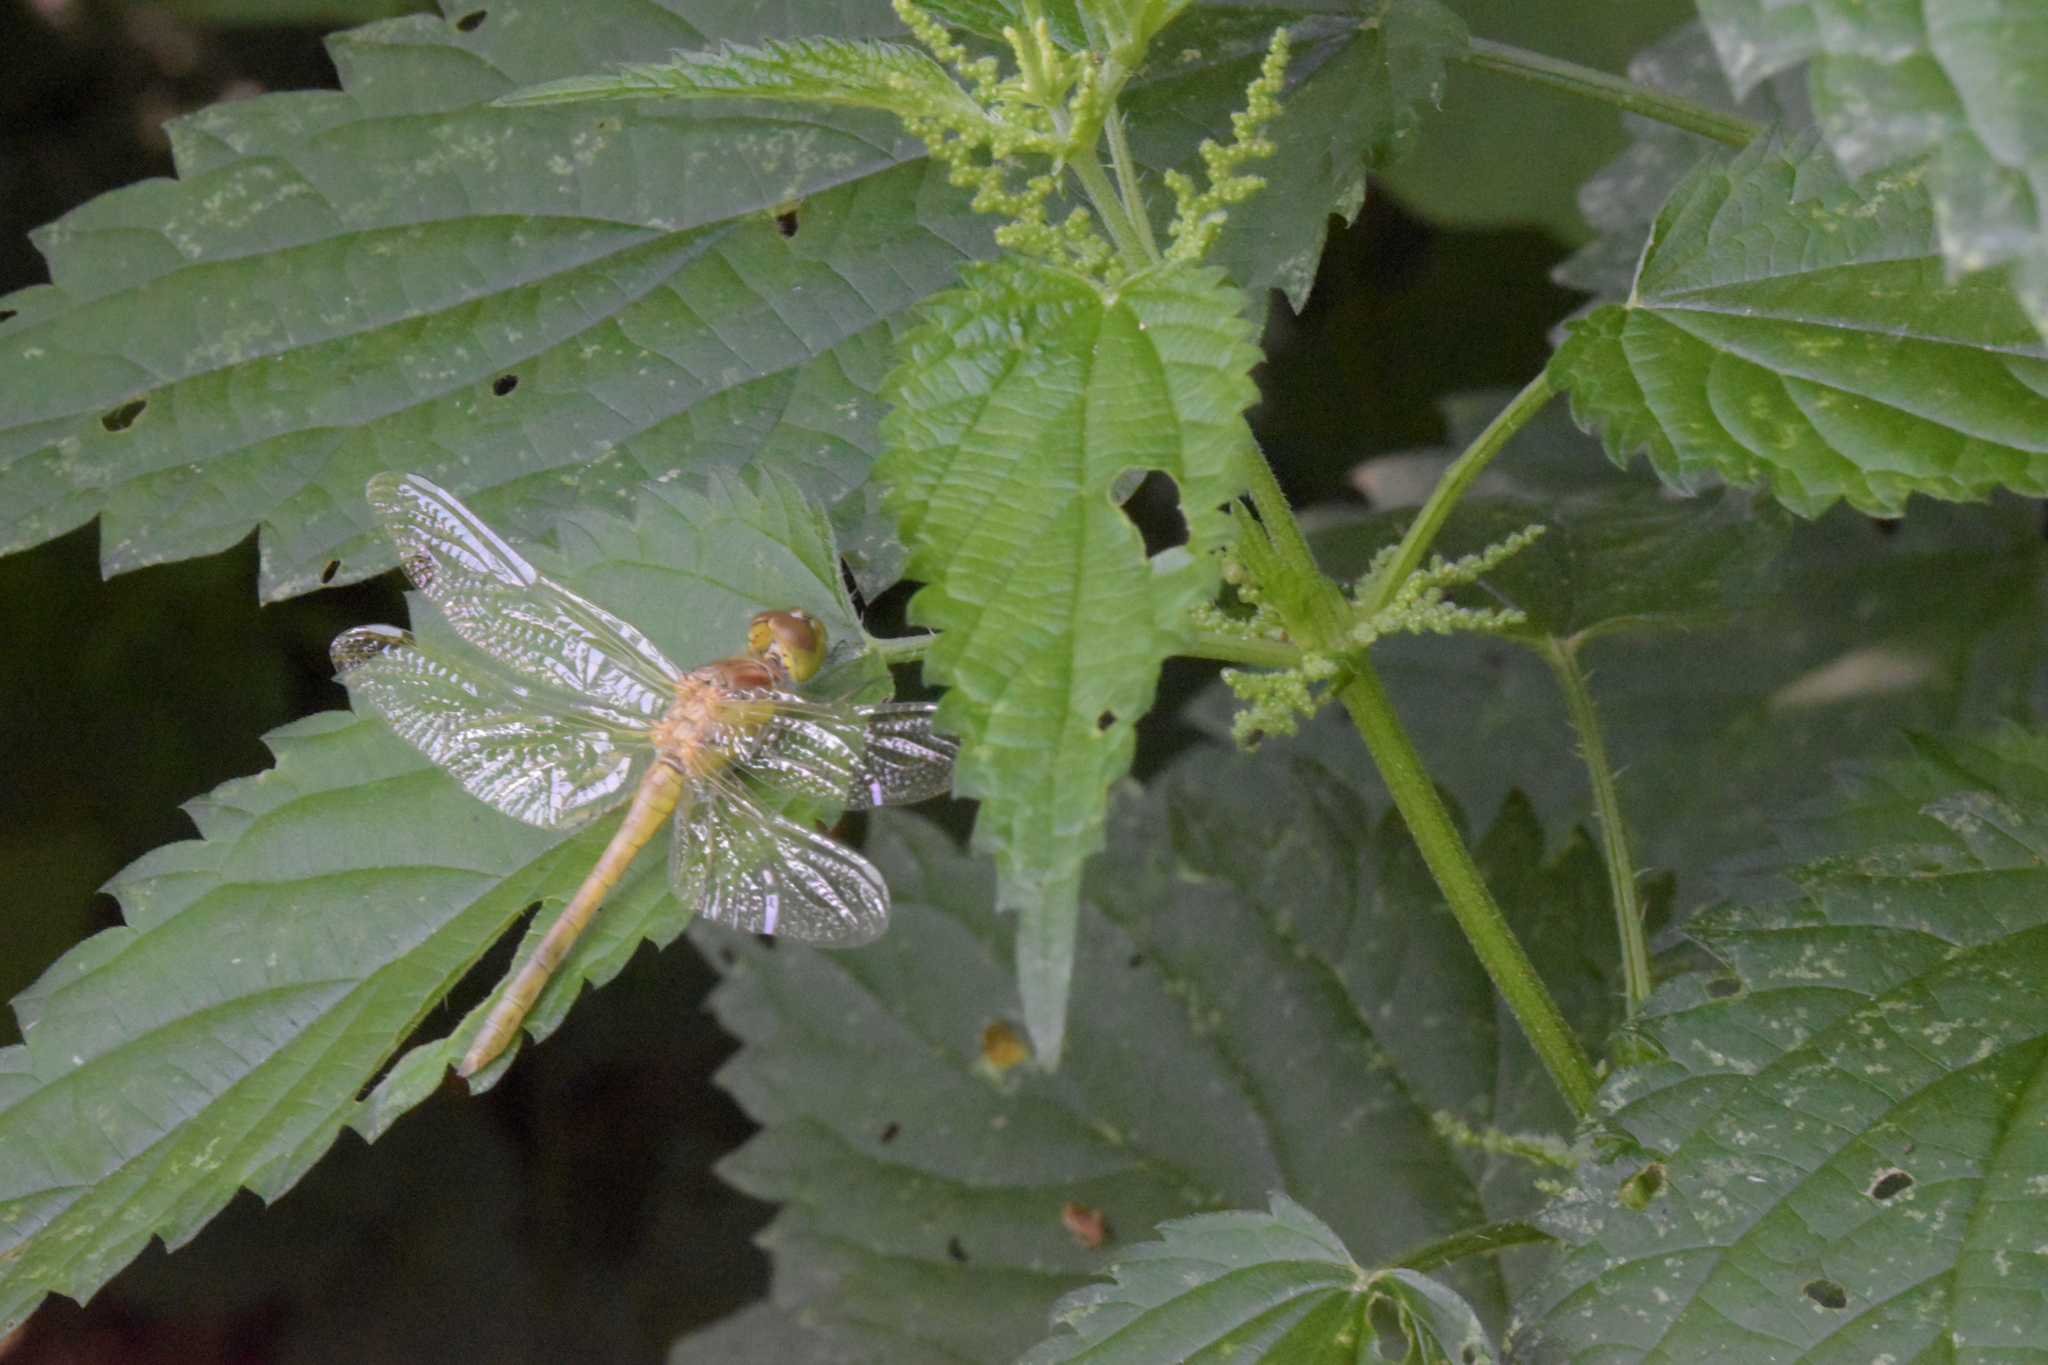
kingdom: Animalia
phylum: Arthropoda
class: Insecta
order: Odonata
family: Libellulidae
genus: Sympetrum
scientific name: Sympetrum striolatum
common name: Common darter
